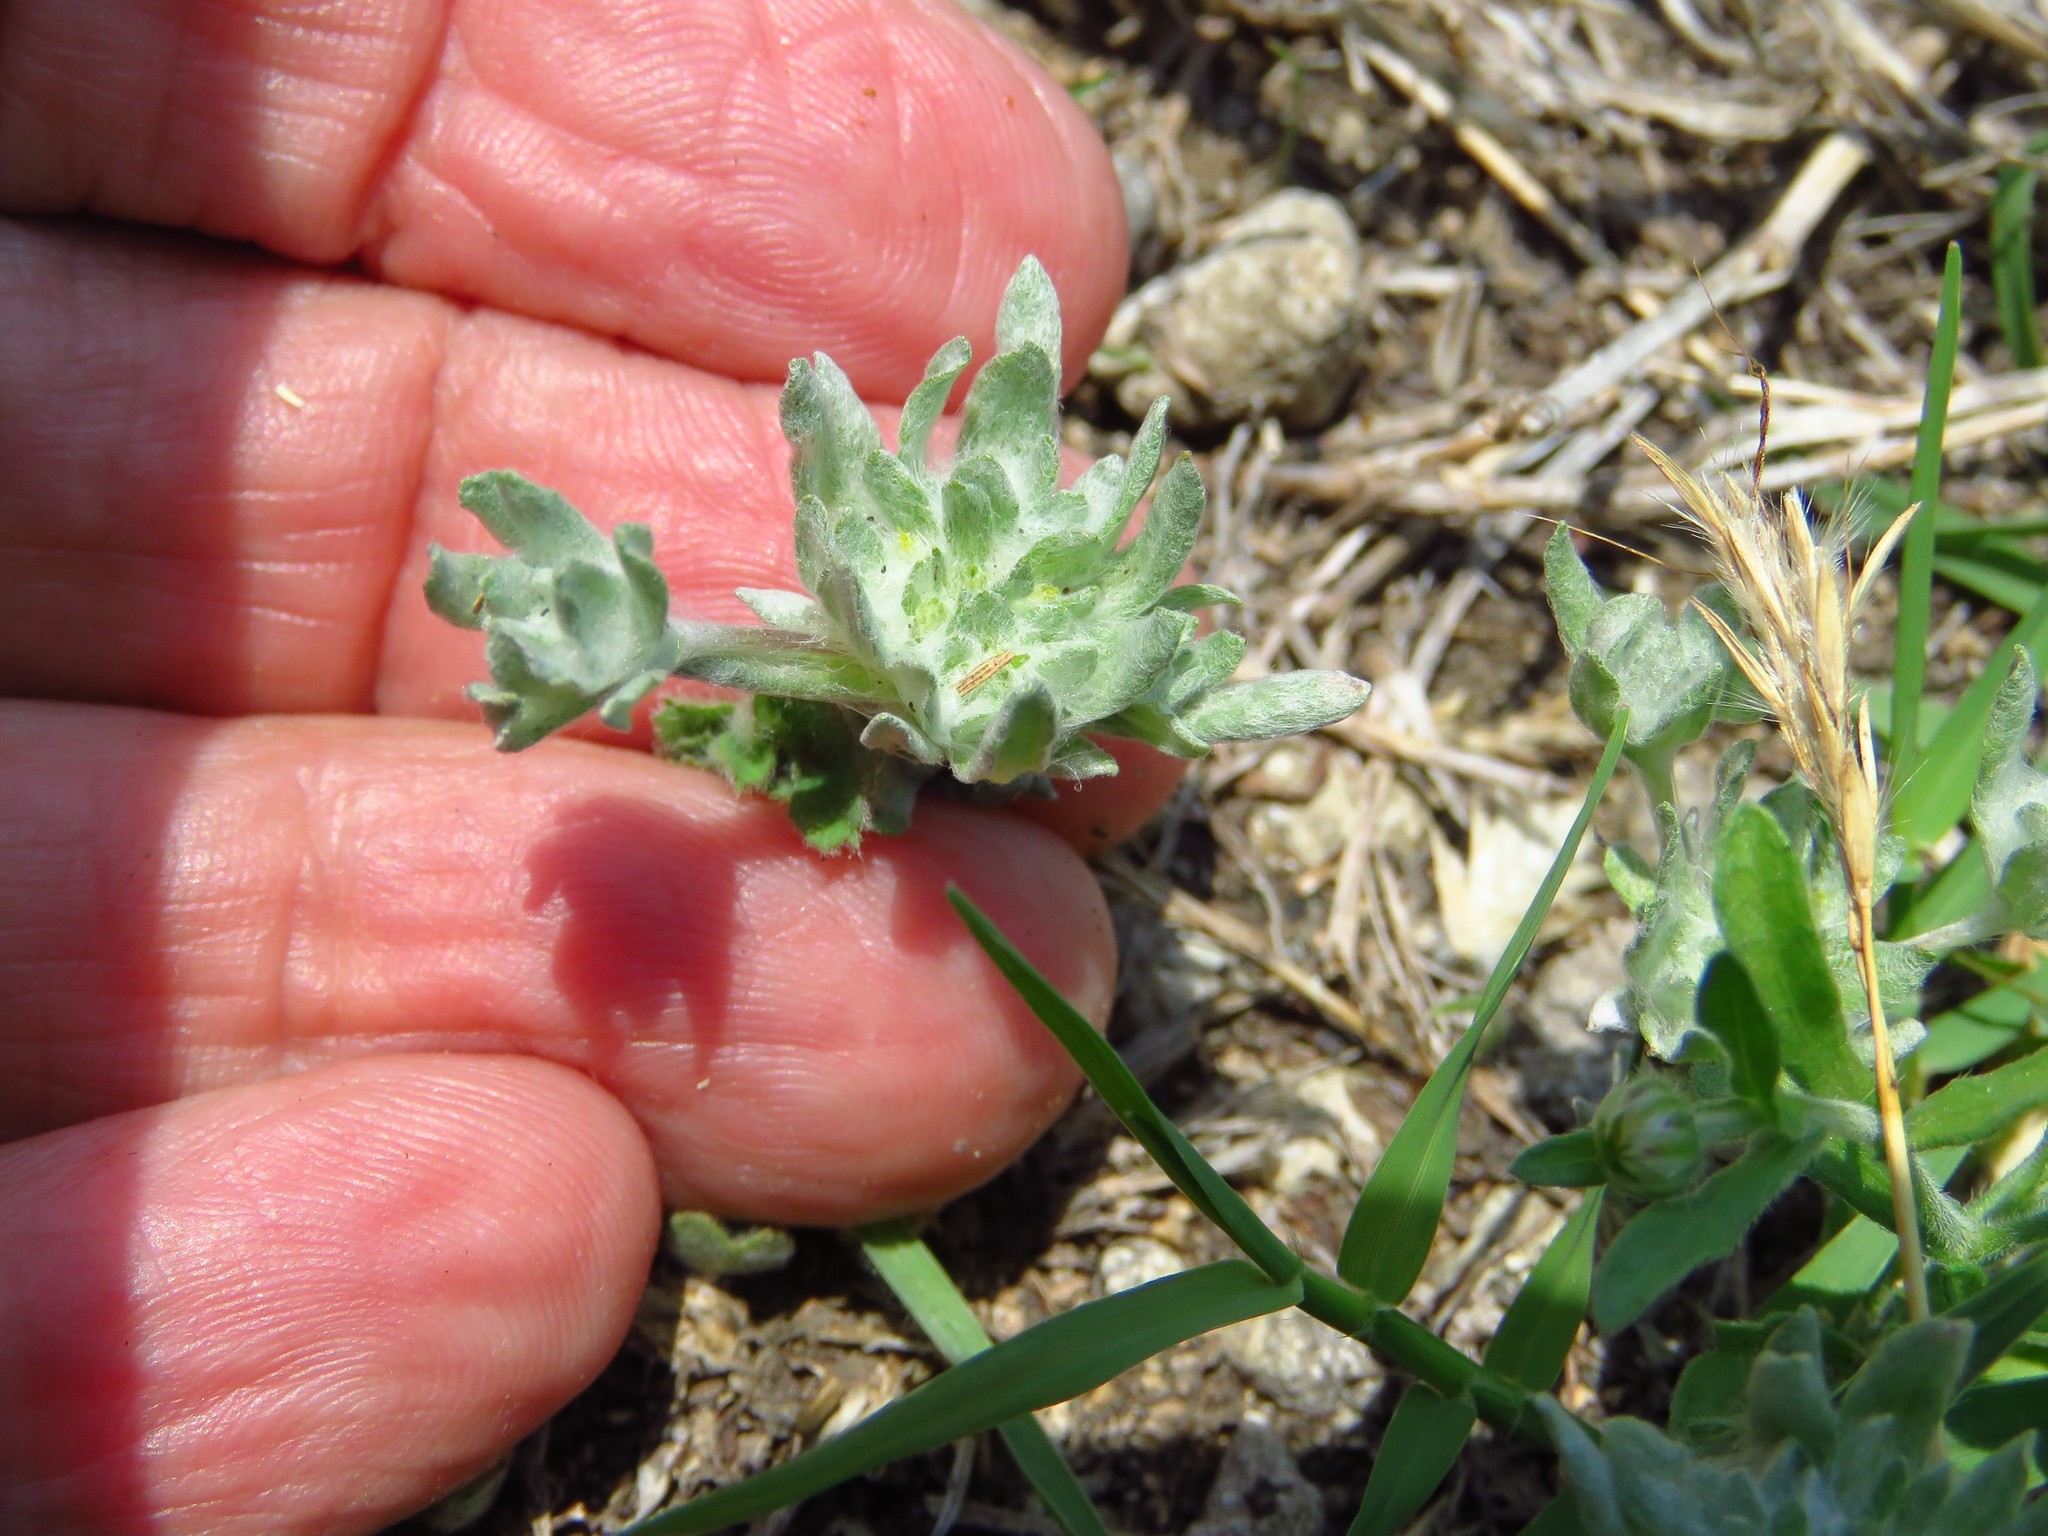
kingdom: Plantae
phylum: Tracheophyta
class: Magnoliopsida
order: Asterales
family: Asteraceae
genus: Diaperia
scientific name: Diaperia prolifera
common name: Big-head rabbit-tobacco
